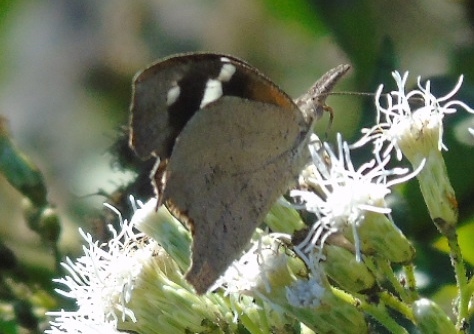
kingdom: Animalia
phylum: Arthropoda
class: Insecta
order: Lepidoptera
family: Nymphalidae
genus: Libytheana
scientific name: Libytheana carinenta
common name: American snout
